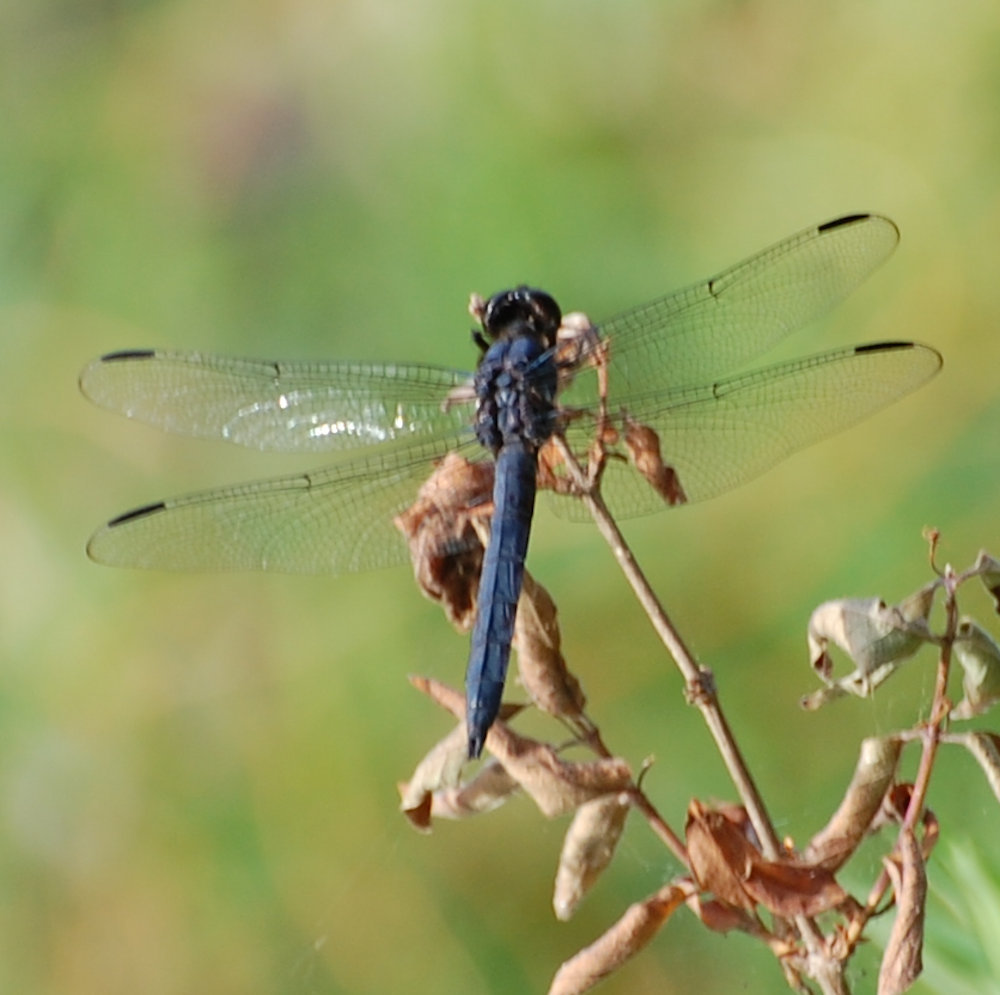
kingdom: Animalia
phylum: Arthropoda
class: Insecta
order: Odonata
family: Libellulidae
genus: Libellula
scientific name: Libellula incesta
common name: Slaty skimmer
